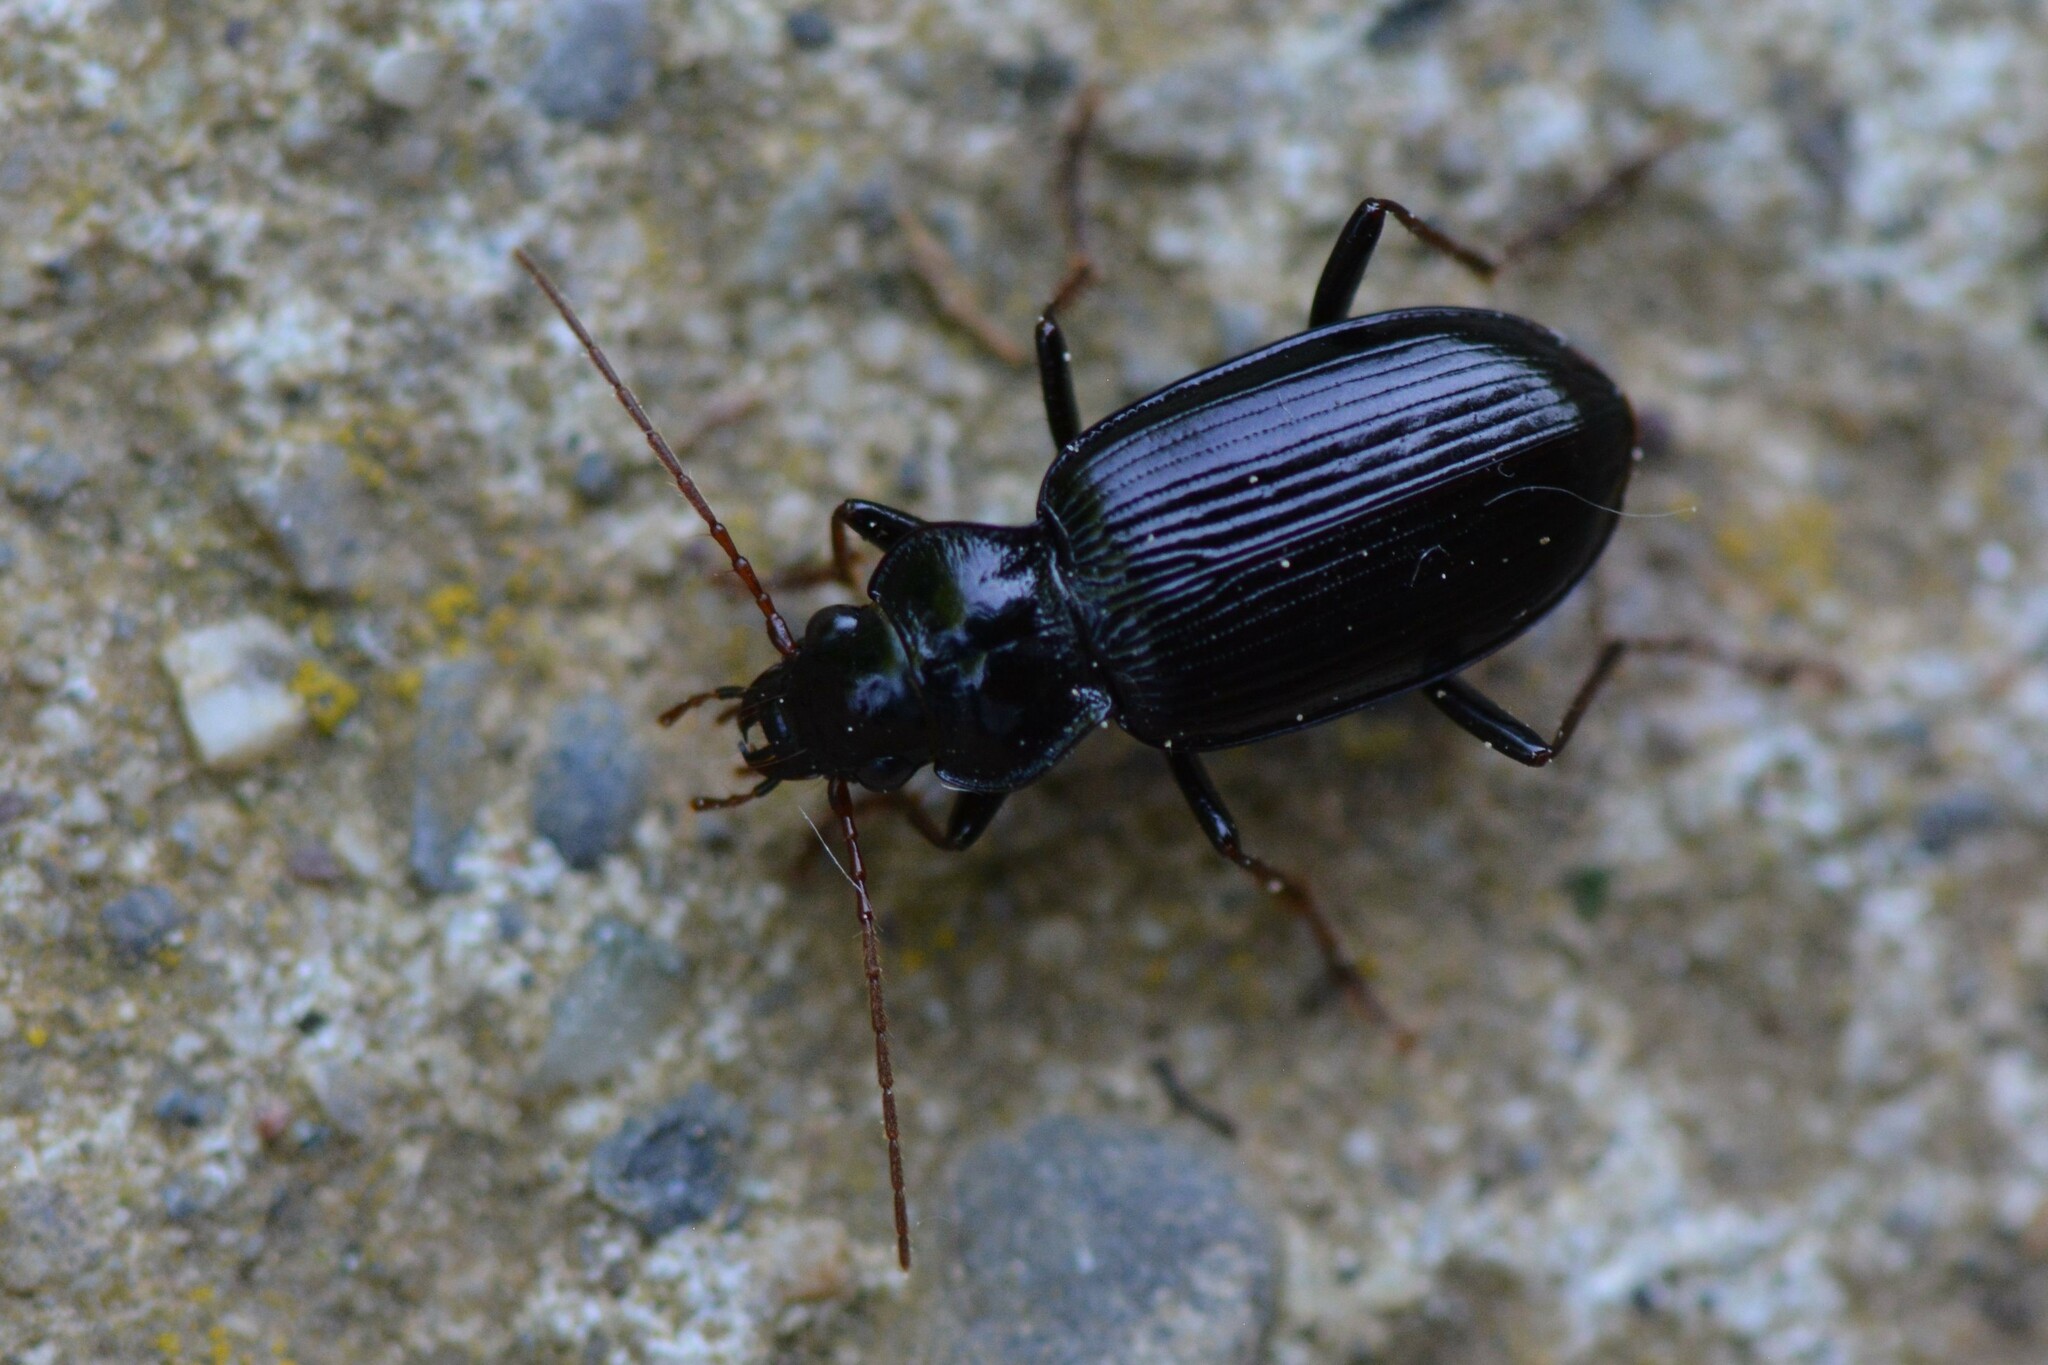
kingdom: Animalia
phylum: Arthropoda
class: Insecta
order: Coleoptera
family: Carabidae
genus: Nebria
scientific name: Nebria salina
